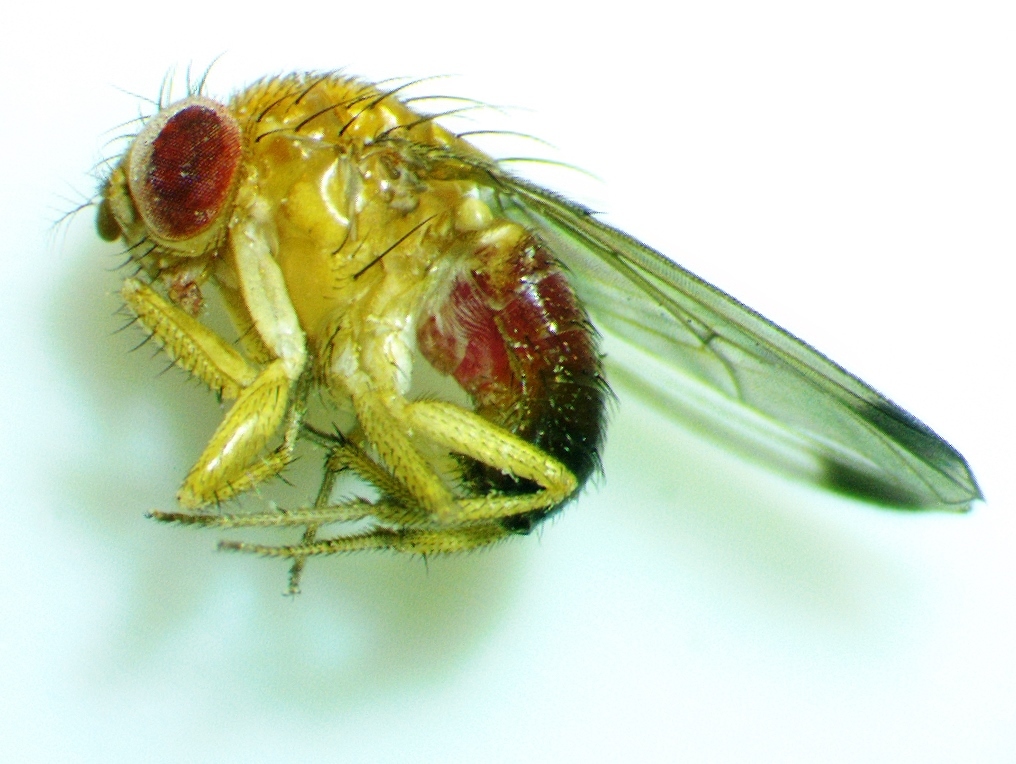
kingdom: Animalia
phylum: Arthropoda
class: Insecta
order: Diptera
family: Drosophilidae
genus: Drosophila
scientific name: Drosophila suzukii
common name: Spotted-wing drosophila
